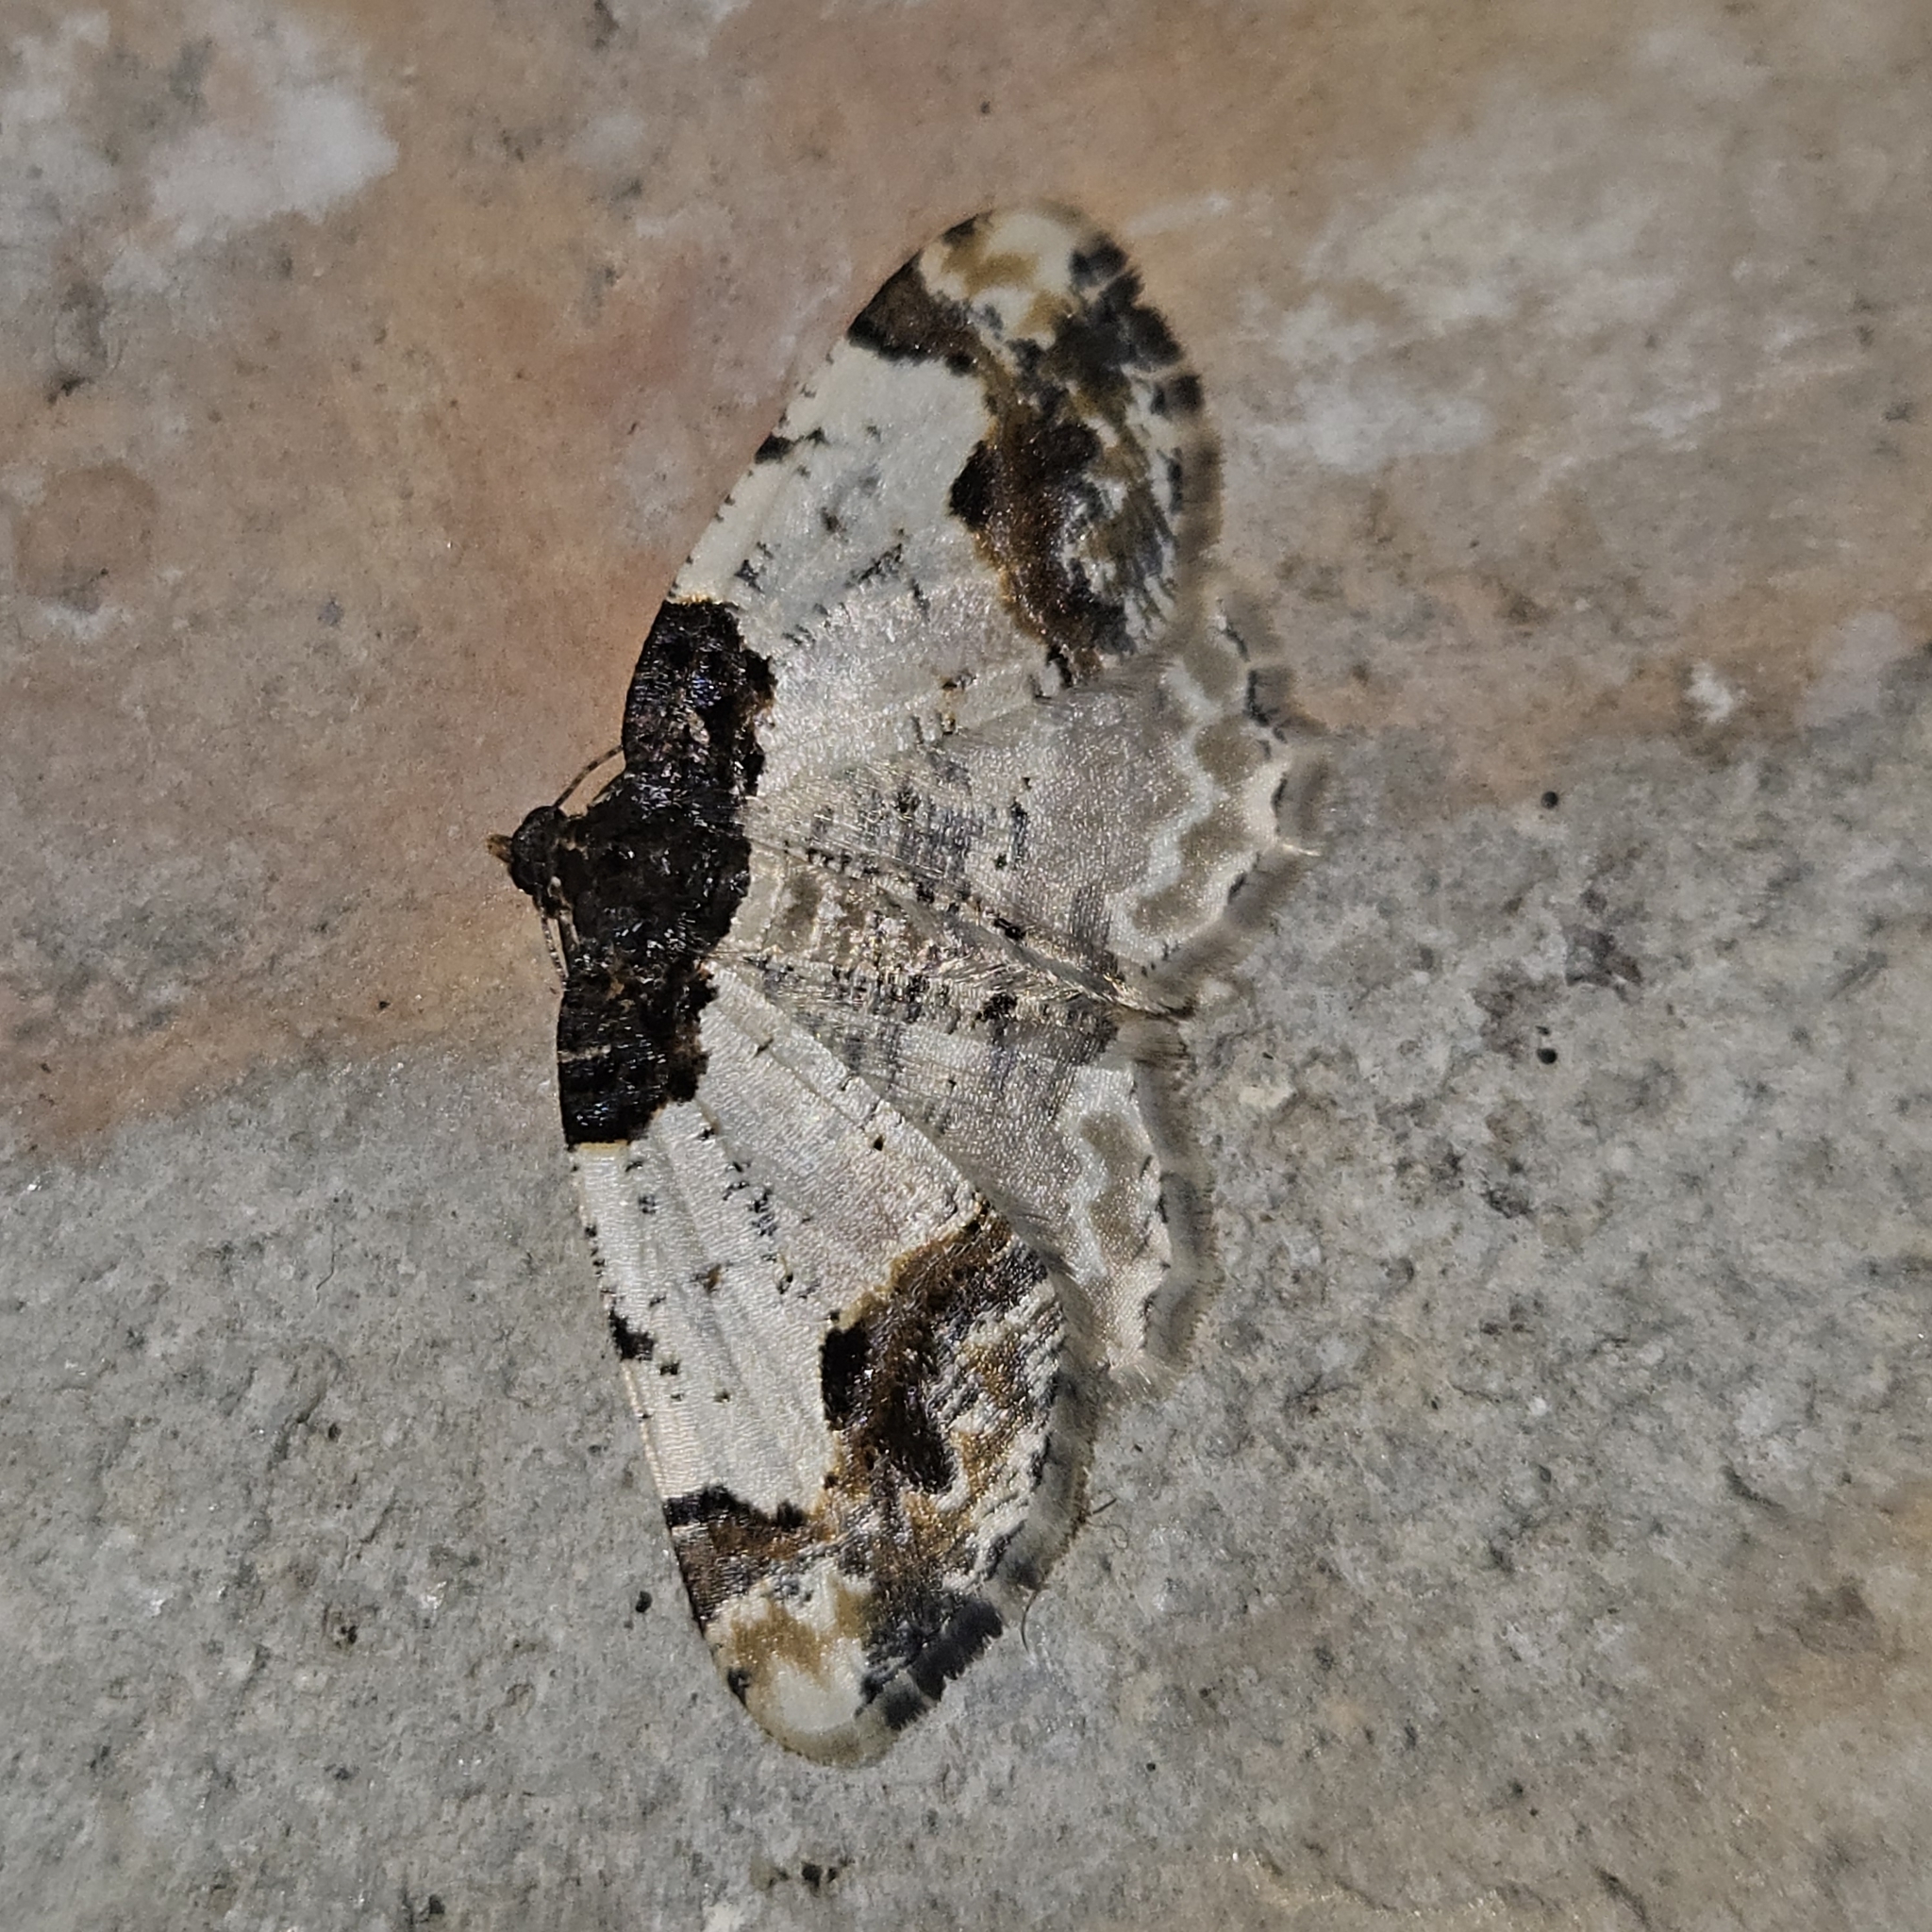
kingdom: Animalia
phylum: Arthropoda
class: Insecta
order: Lepidoptera
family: Geometridae
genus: Ligdia
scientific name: Ligdia adustata
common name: Scorched carpet
